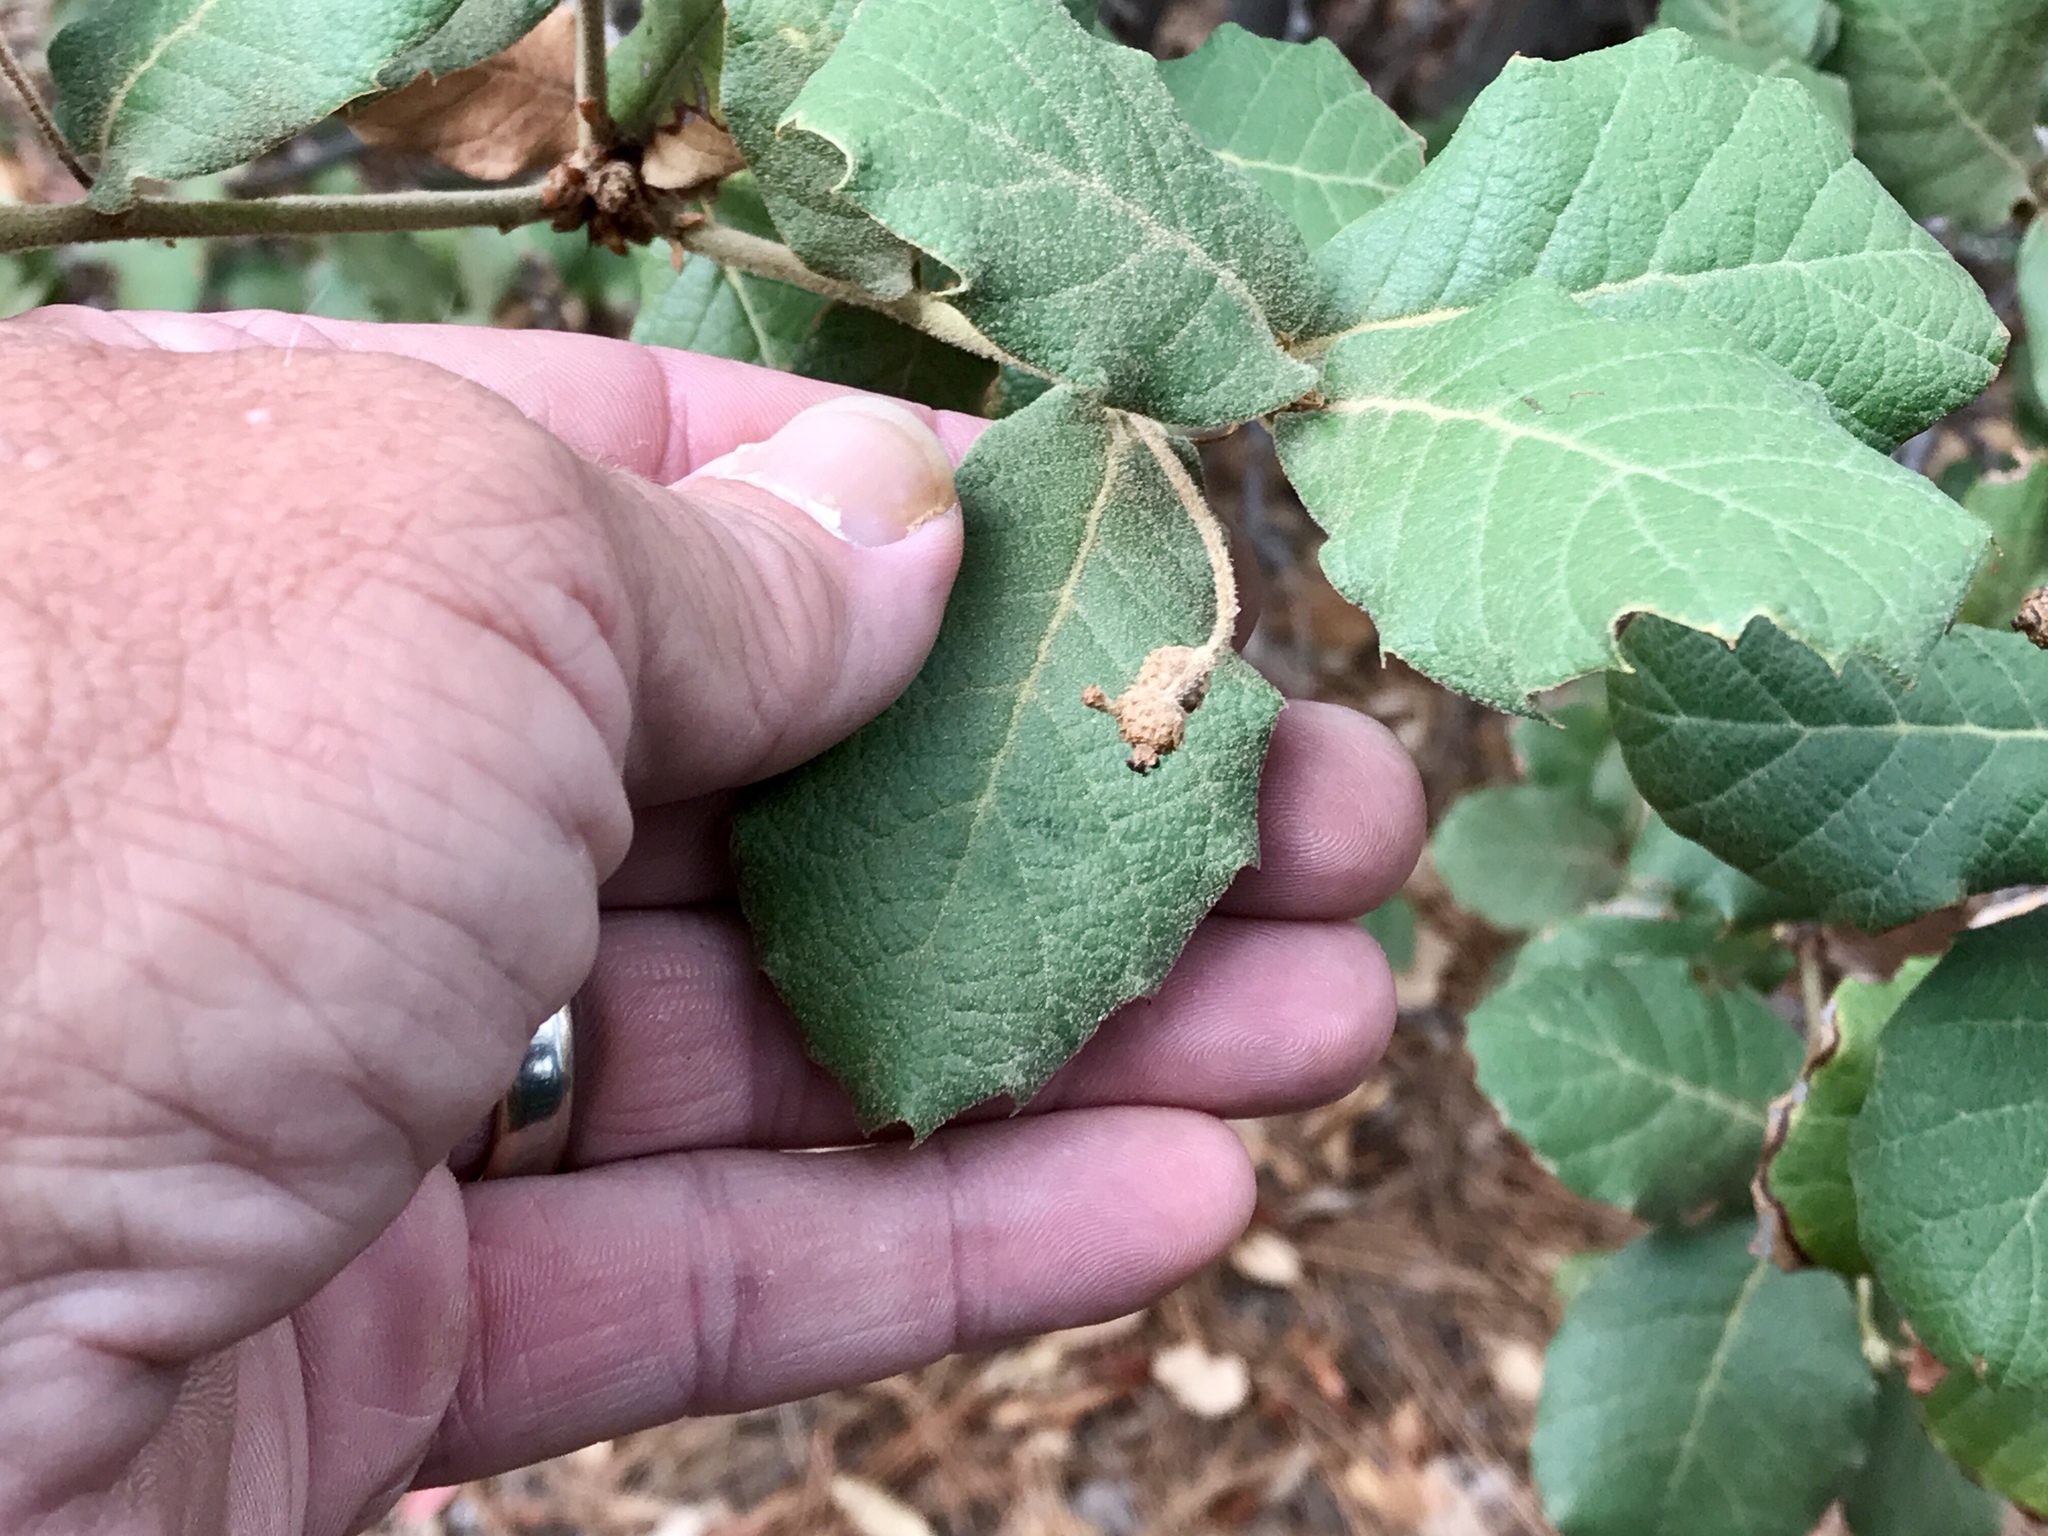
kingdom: Plantae
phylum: Tracheophyta
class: Magnoliopsida
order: Fagales
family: Fagaceae
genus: Quercus
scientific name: Quercus rugosa
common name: Netleaf oak
